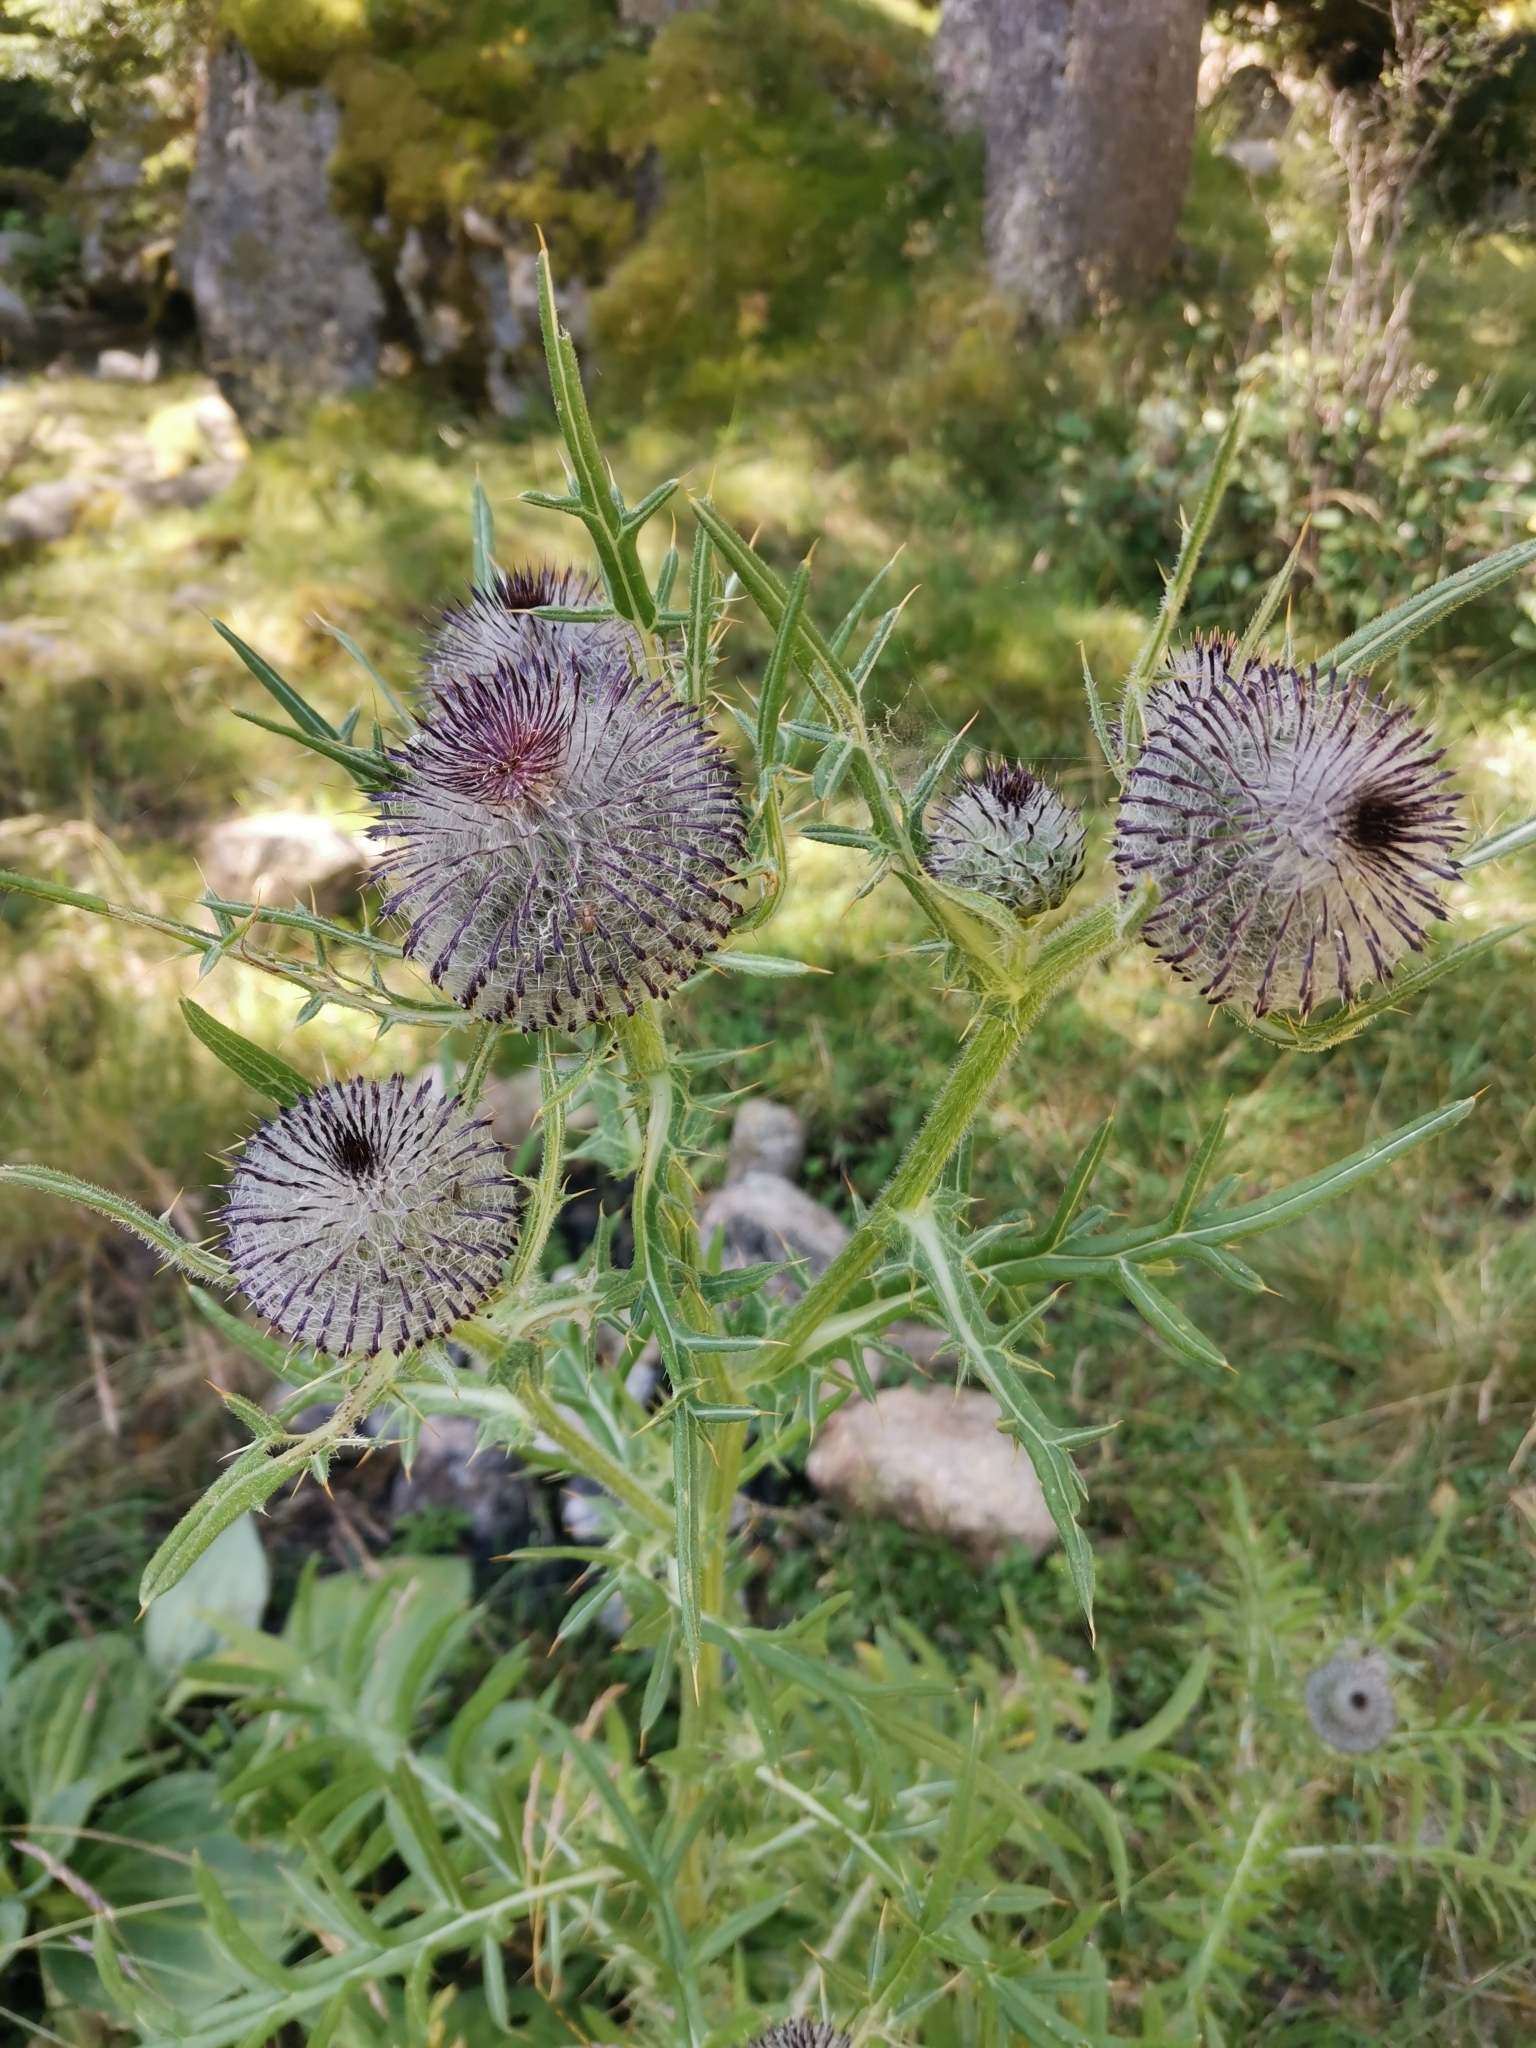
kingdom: Plantae
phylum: Tracheophyta
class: Magnoliopsida
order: Asterales
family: Asteraceae
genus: Lophiolepis
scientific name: Lophiolepis eriophora
